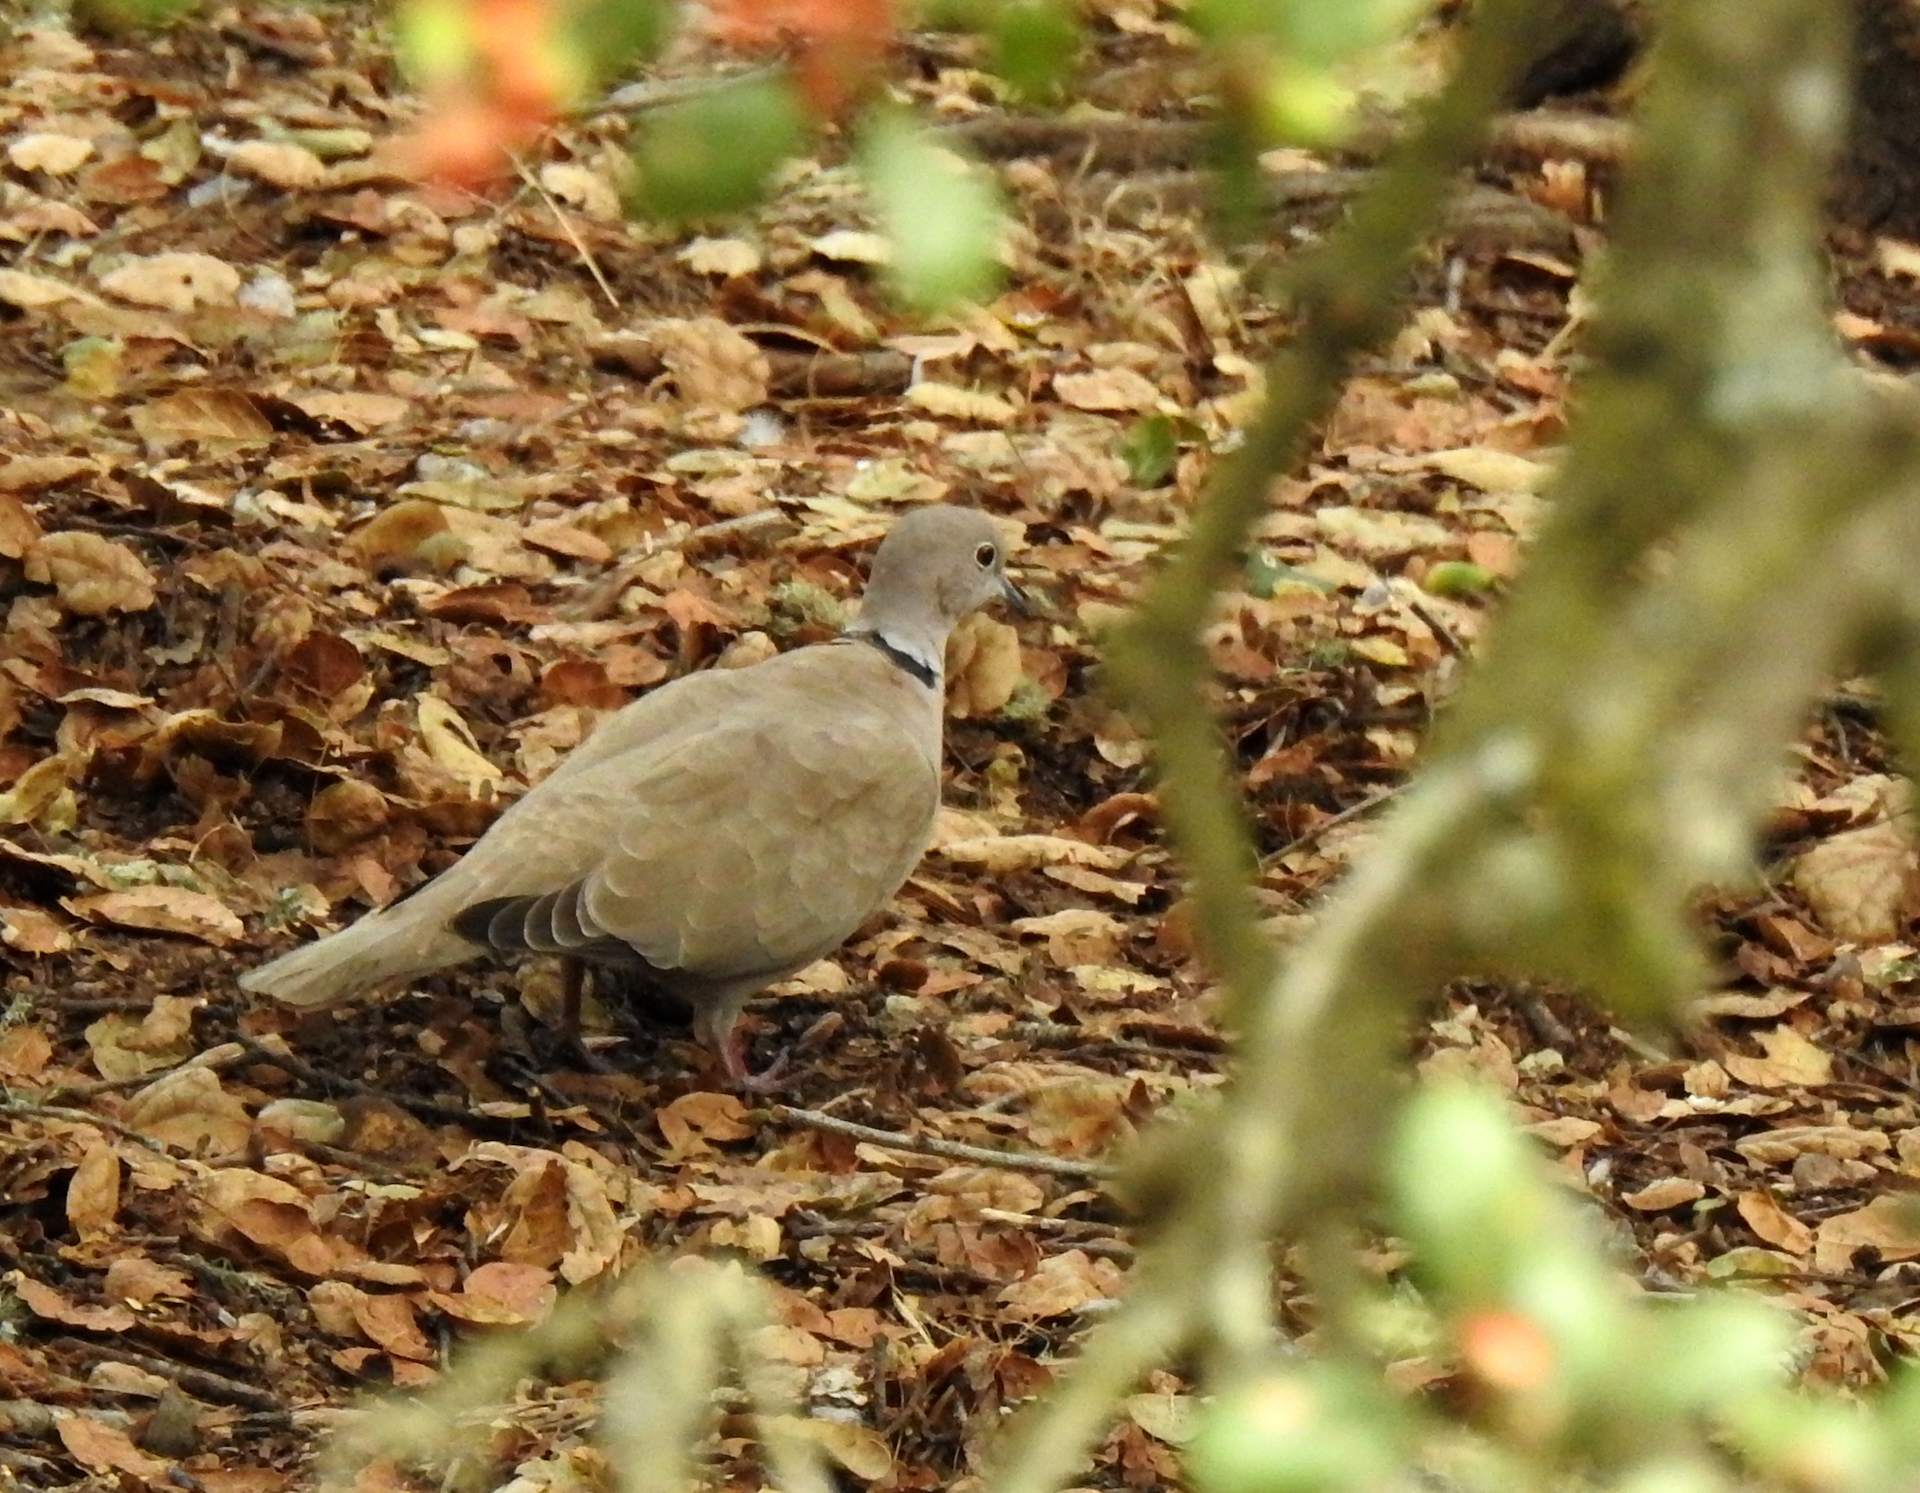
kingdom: Animalia
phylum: Chordata
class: Aves
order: Columbiformes
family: Columbidae
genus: Streptopelia
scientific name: Streptopelia decaocto
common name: Eurasian collared dove
